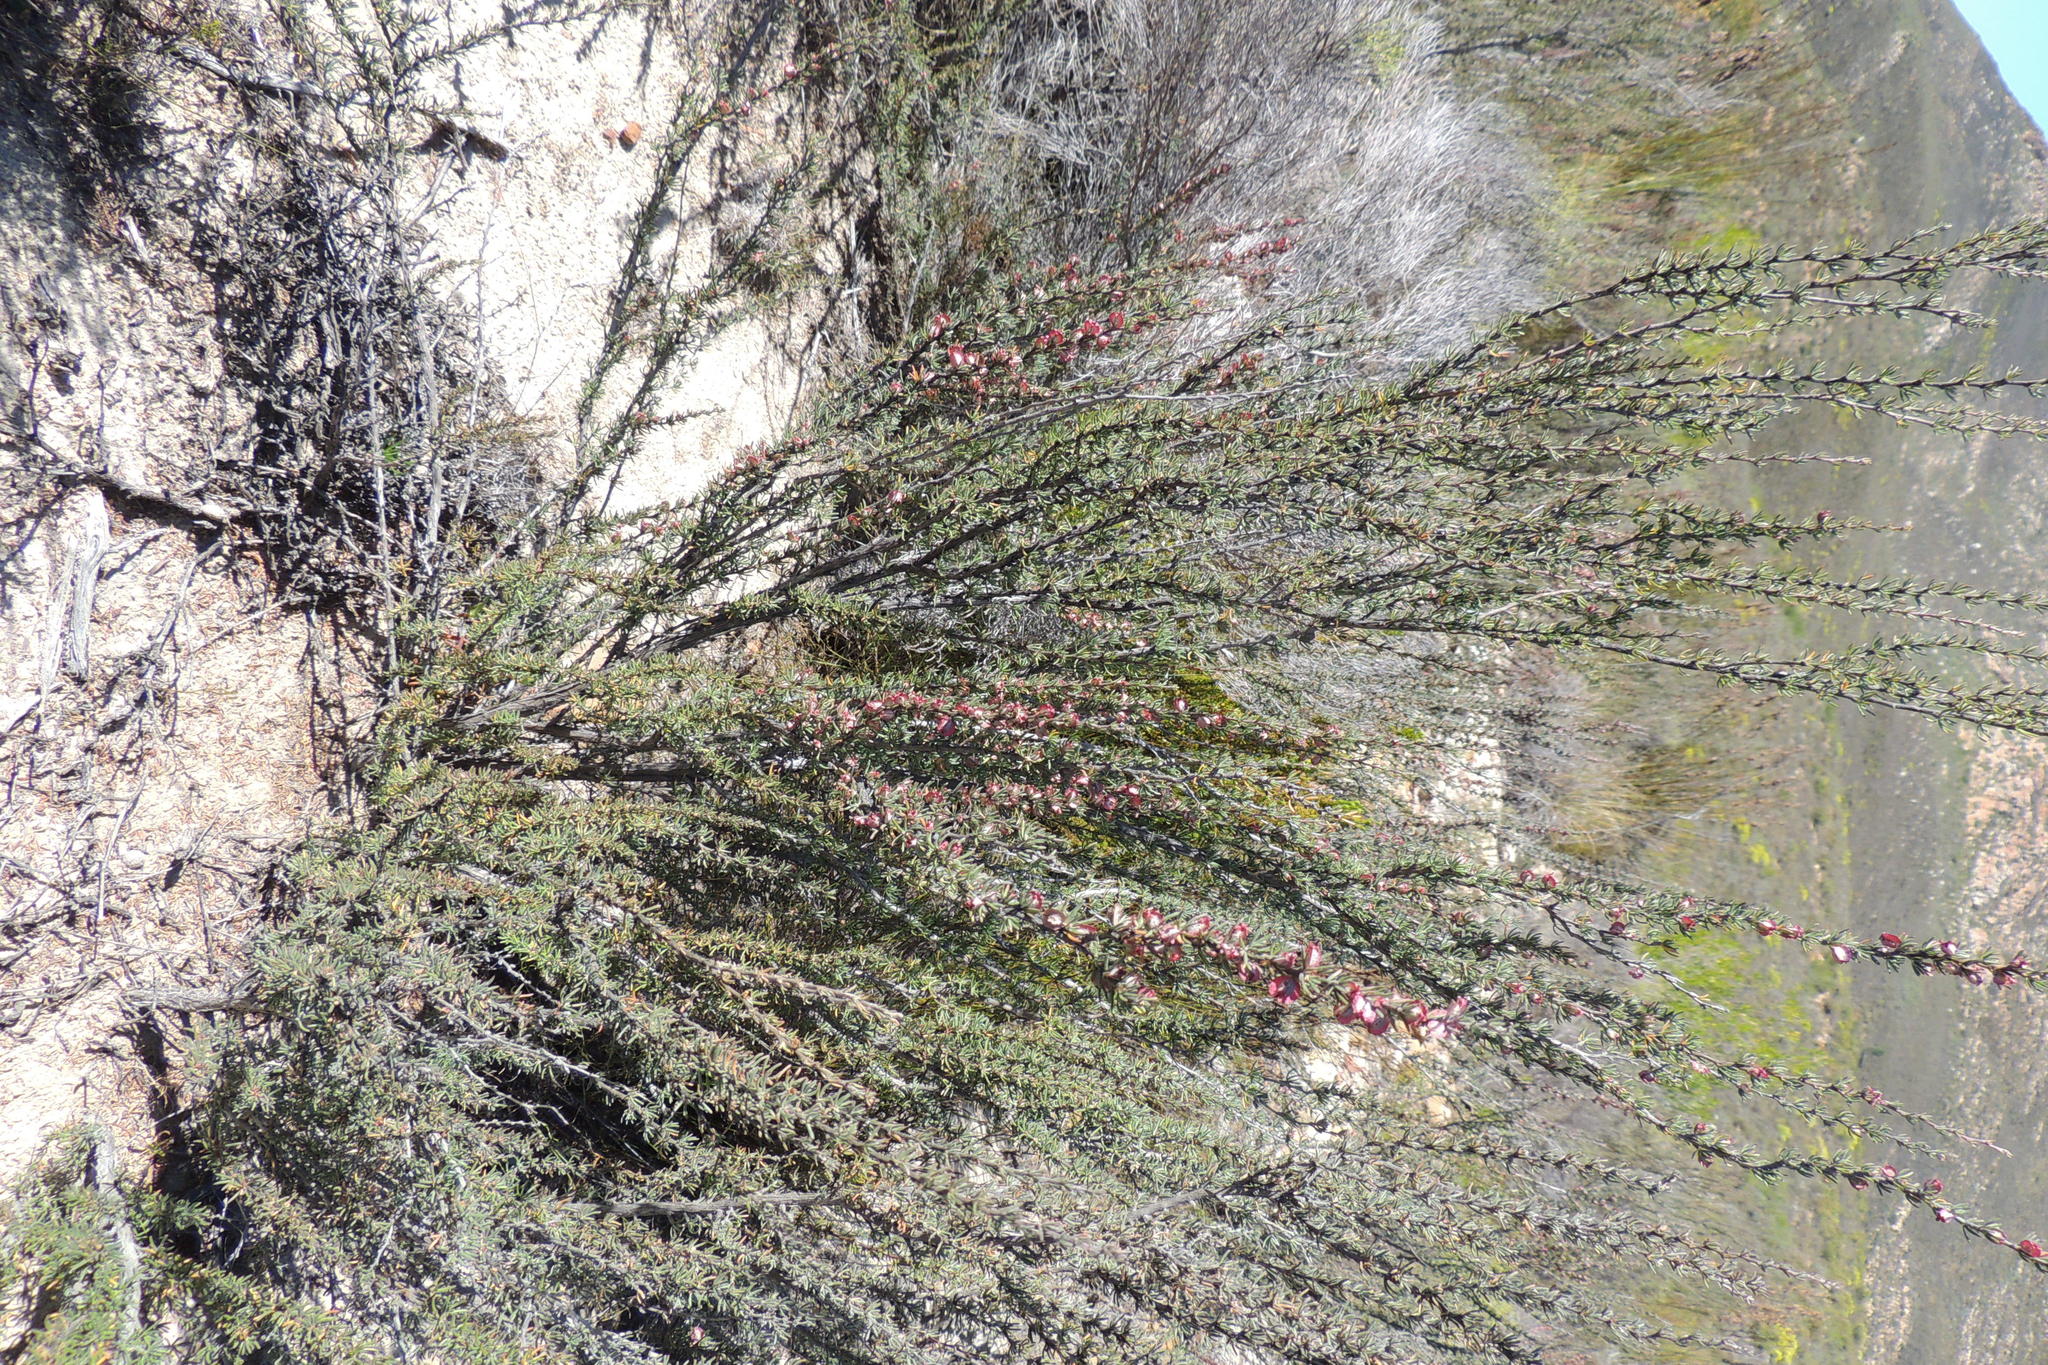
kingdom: Plantae
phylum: Tracheophyta
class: Magnoliopsida
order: Rosales
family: Rosaceae
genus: Cliffortia
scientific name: Cliffortia alata
